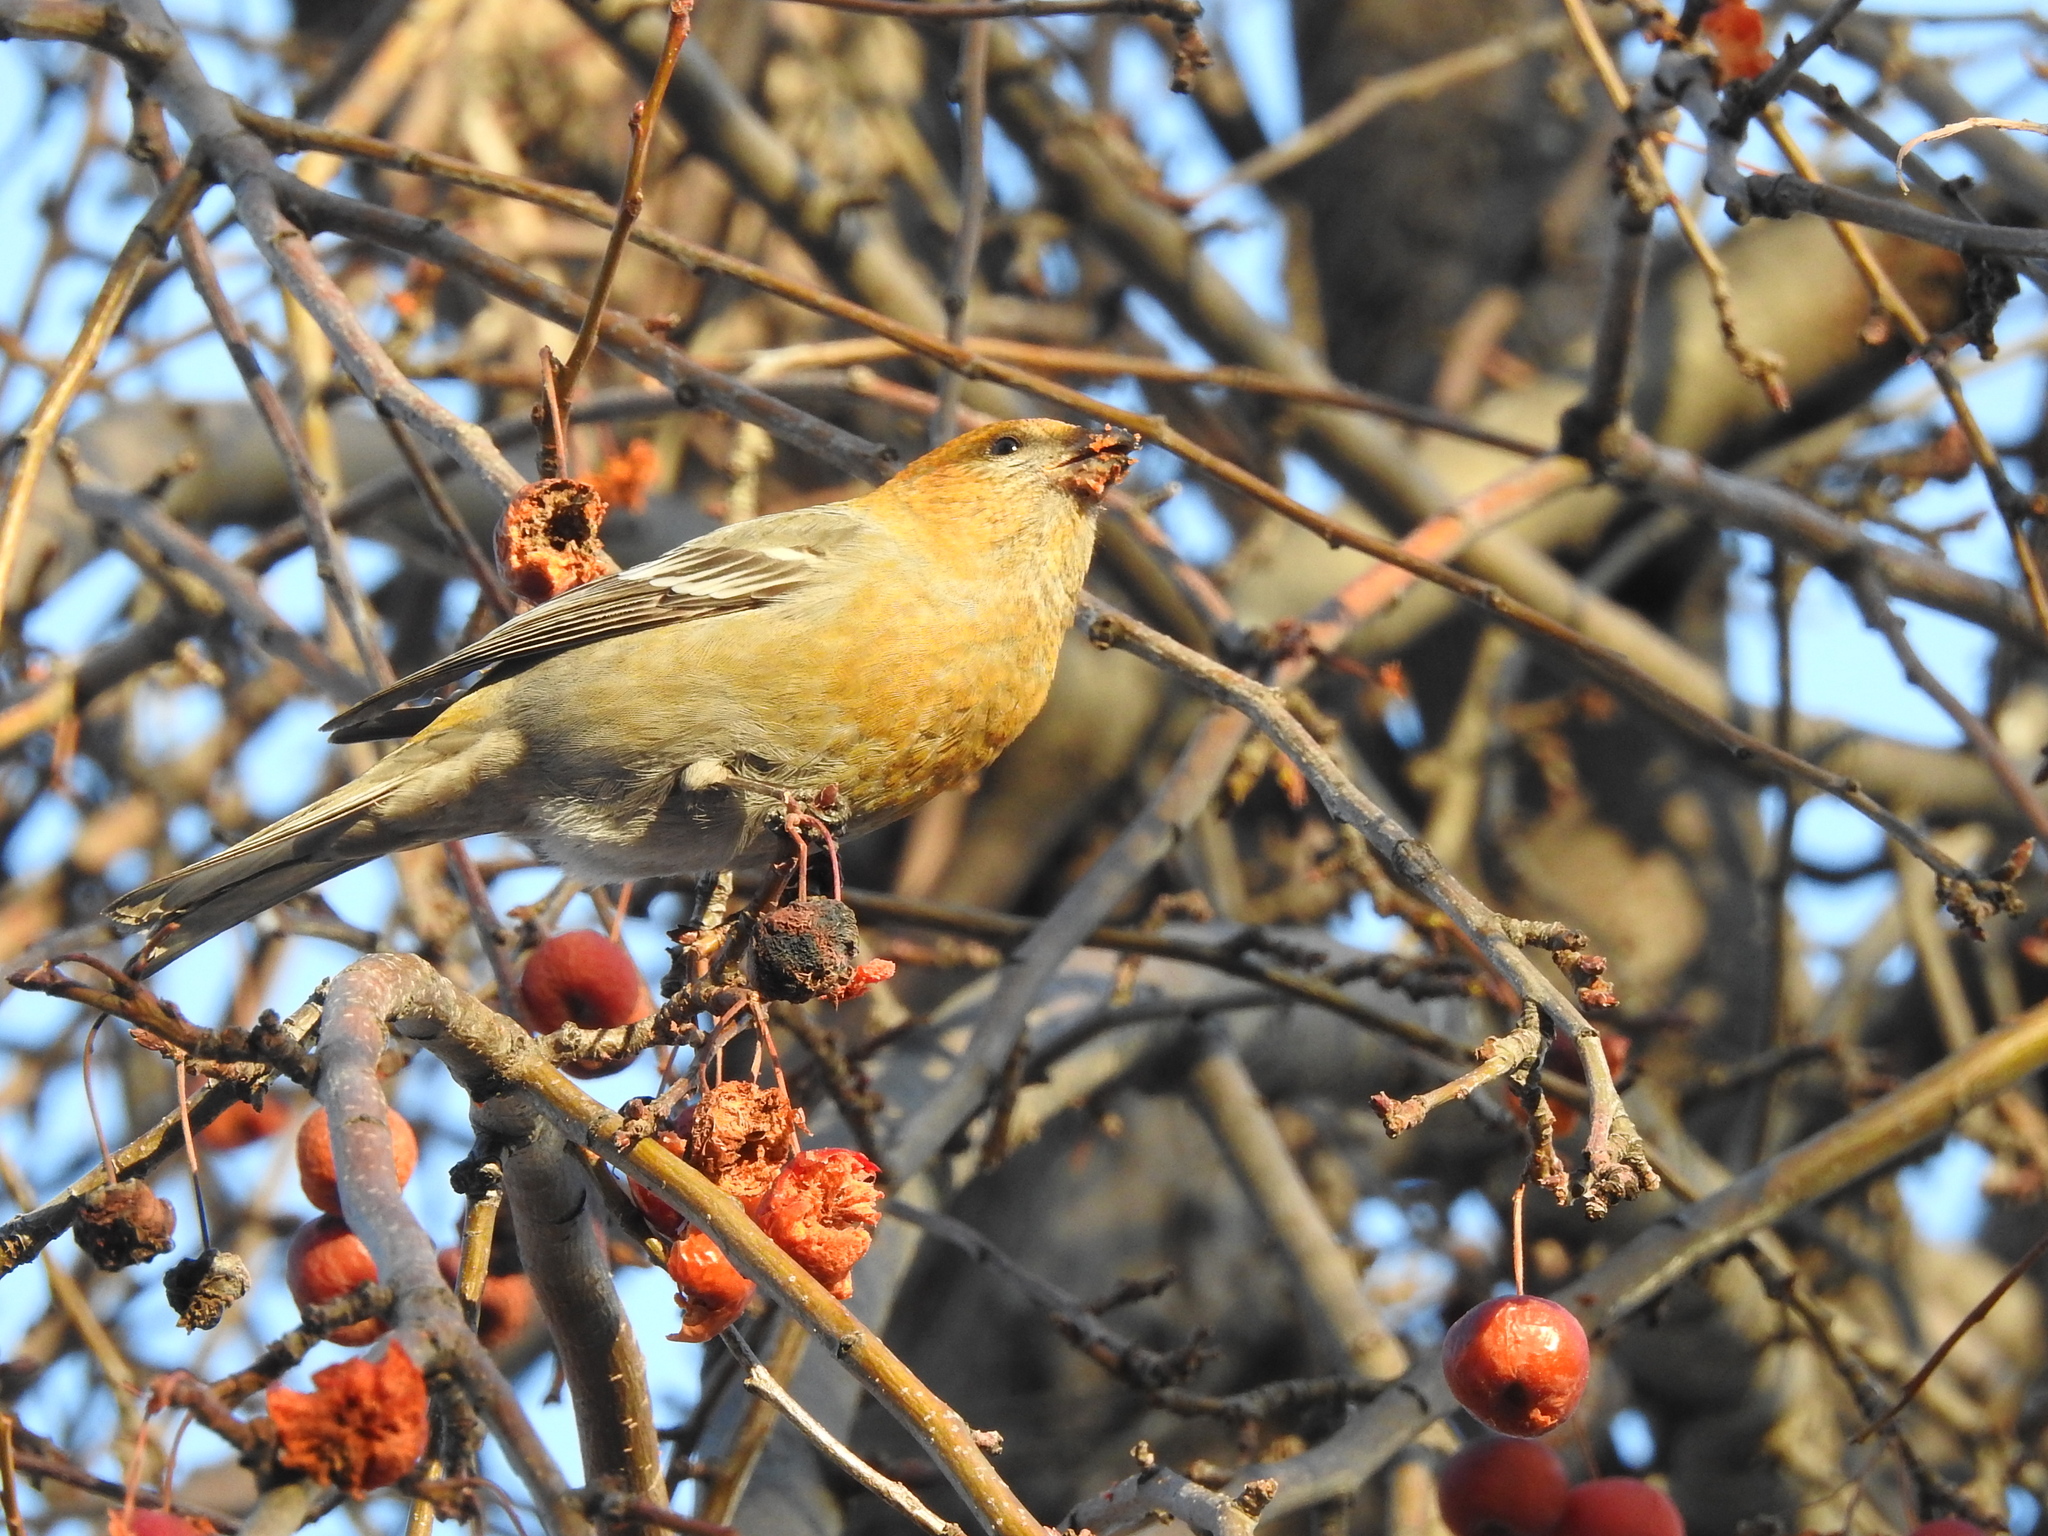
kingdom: Animalia
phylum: Chordata
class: Aves
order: Passeriformes
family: Fringillidae
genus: Pinicola
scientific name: Pinicola enucleator
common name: Pine grosbeak
